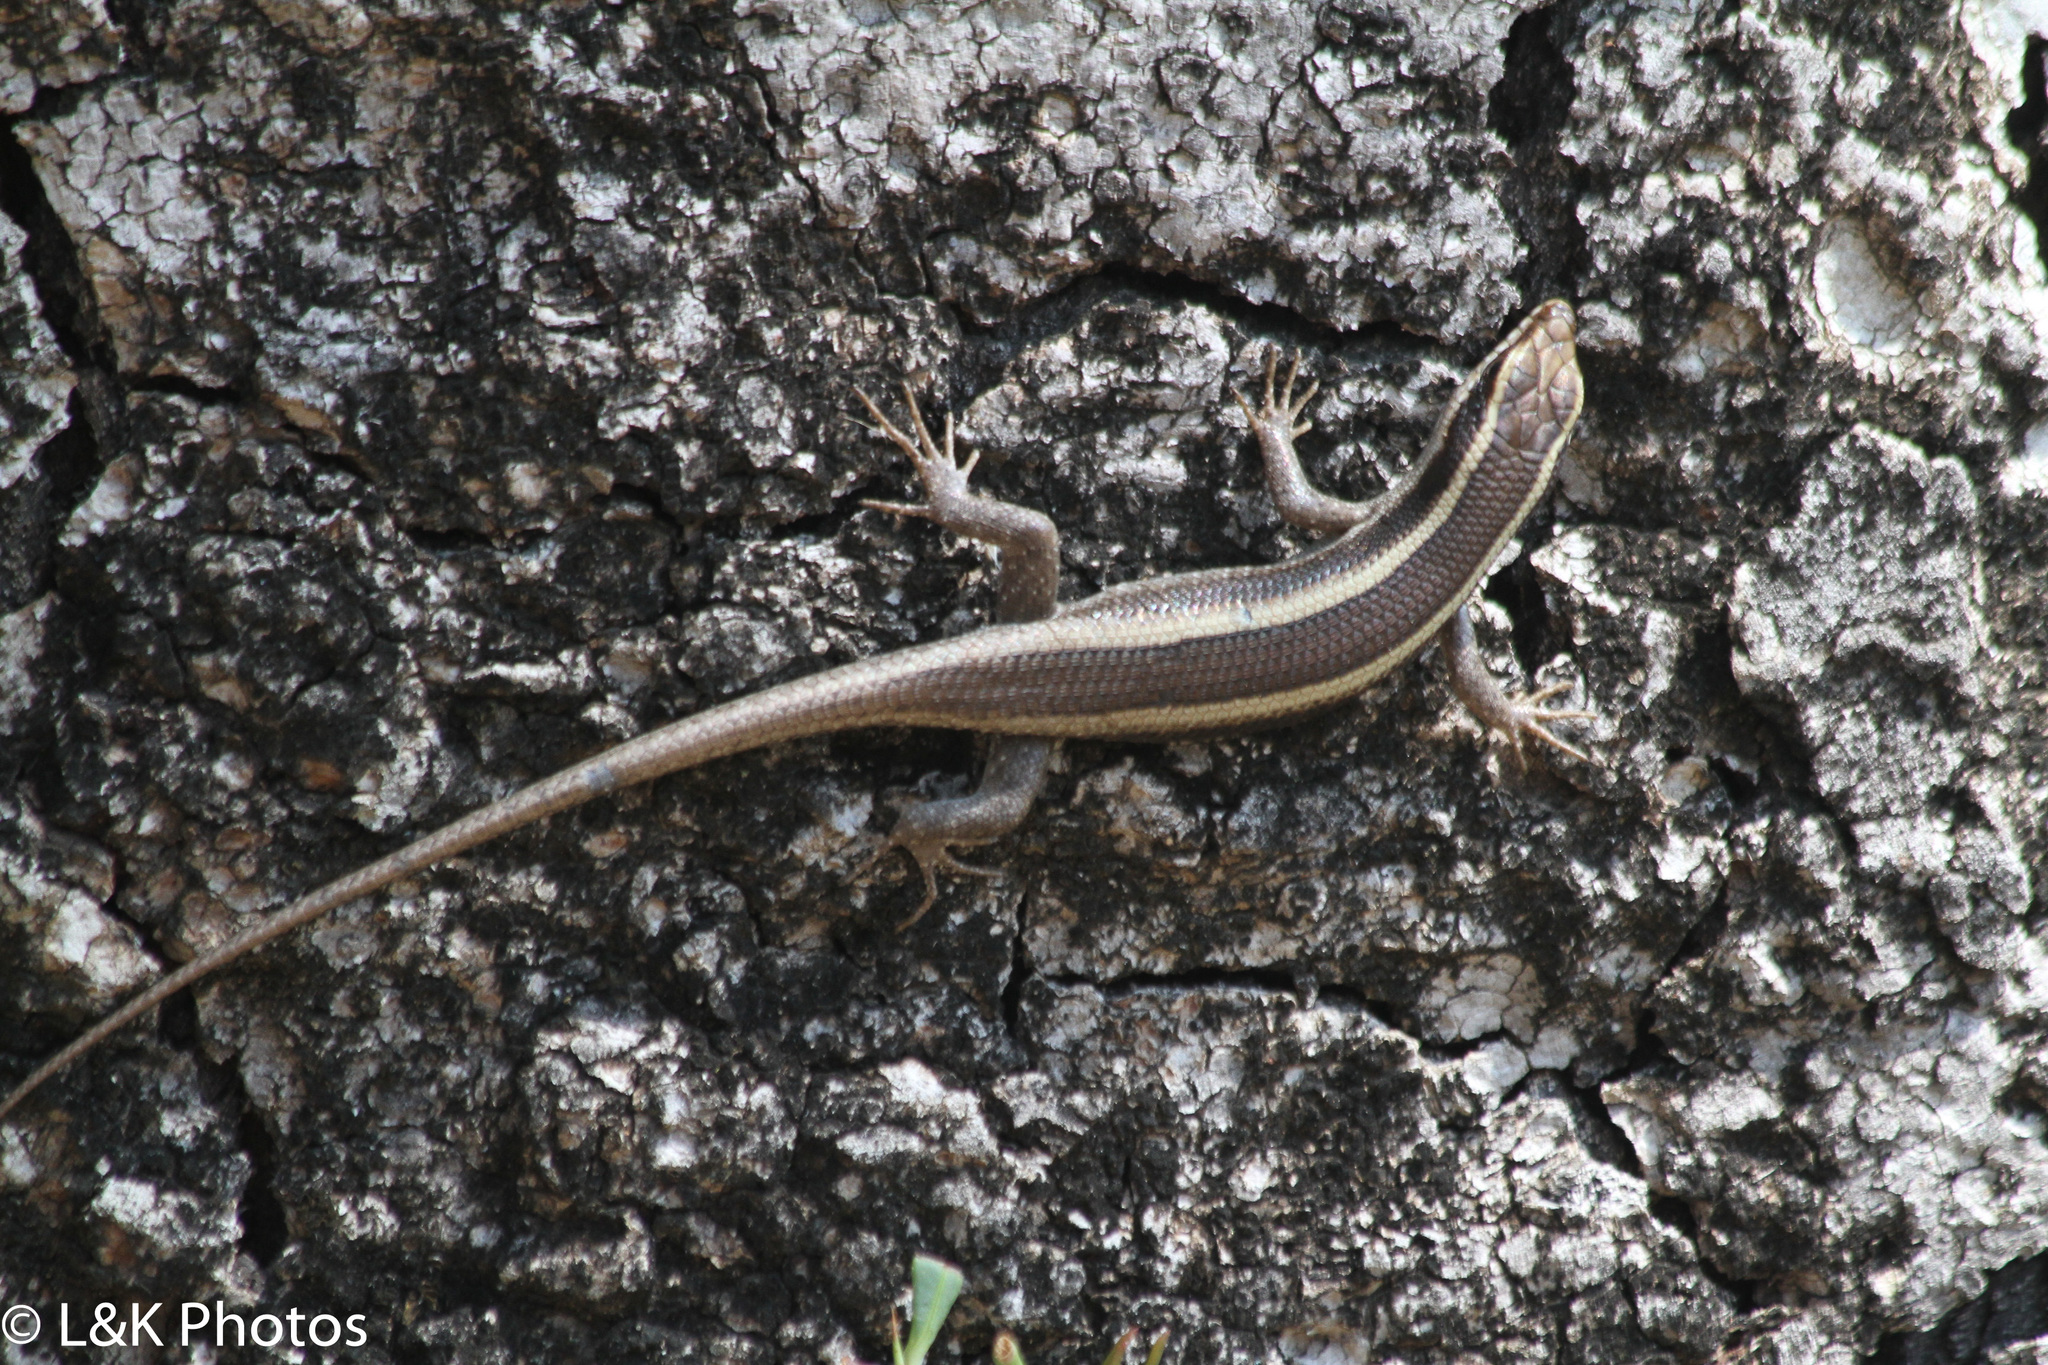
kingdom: Animalia
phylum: Chordata
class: Squamata
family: Scincidae
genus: Trachylepis
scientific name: Trachylepis striata
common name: African striped mabuya
